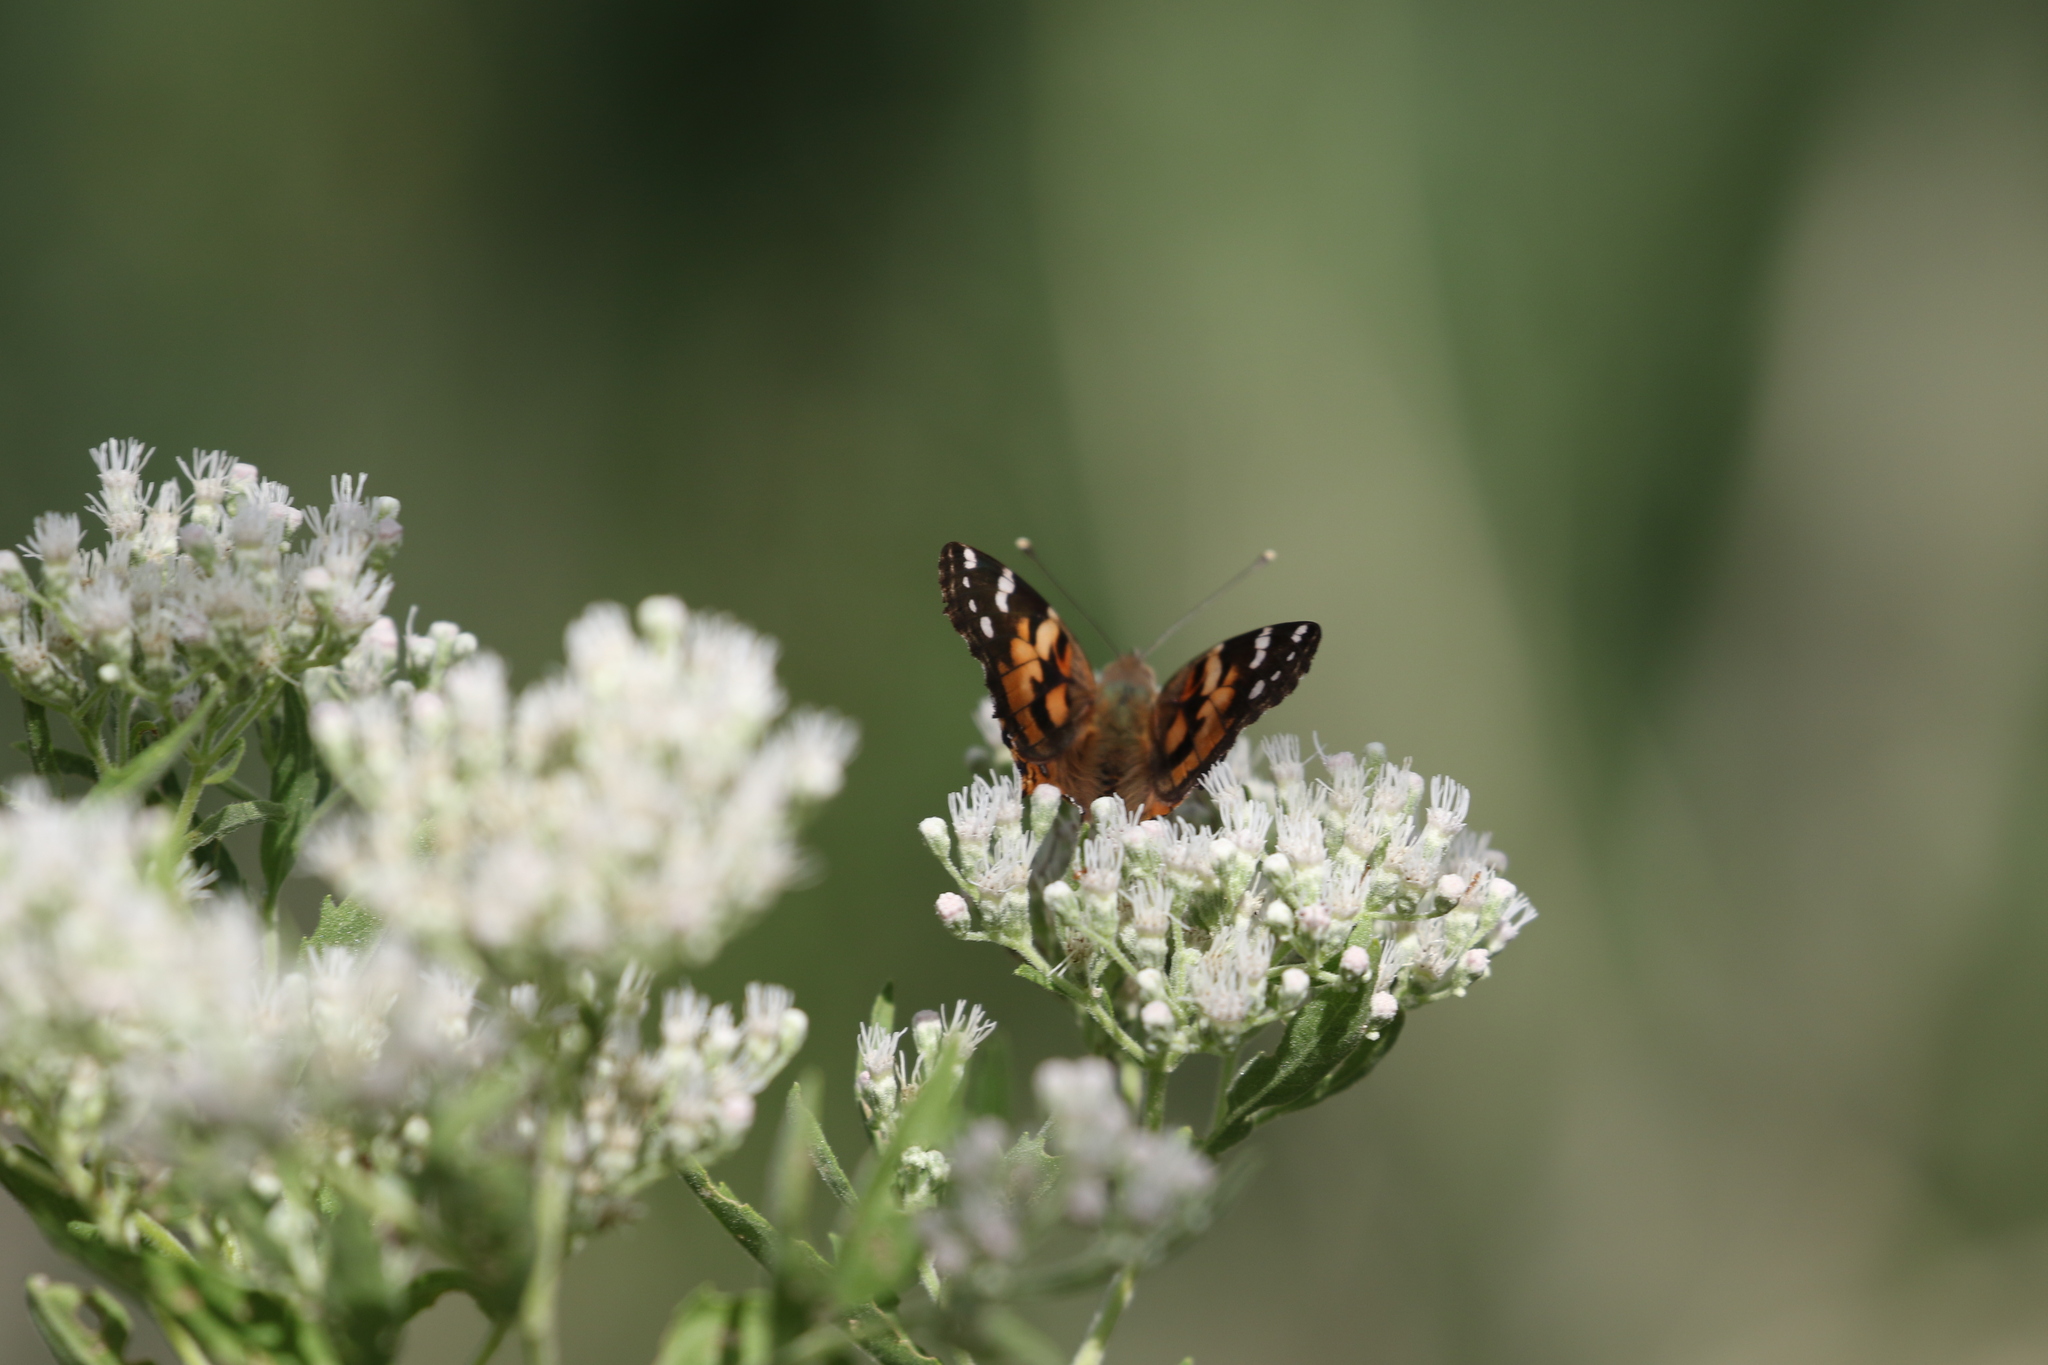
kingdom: Animalia
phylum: Arthropoda
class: Insecta
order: Lepidoptera
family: Nymphalidae
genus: Vanessa
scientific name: Vanessa cardui
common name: Painted lady
